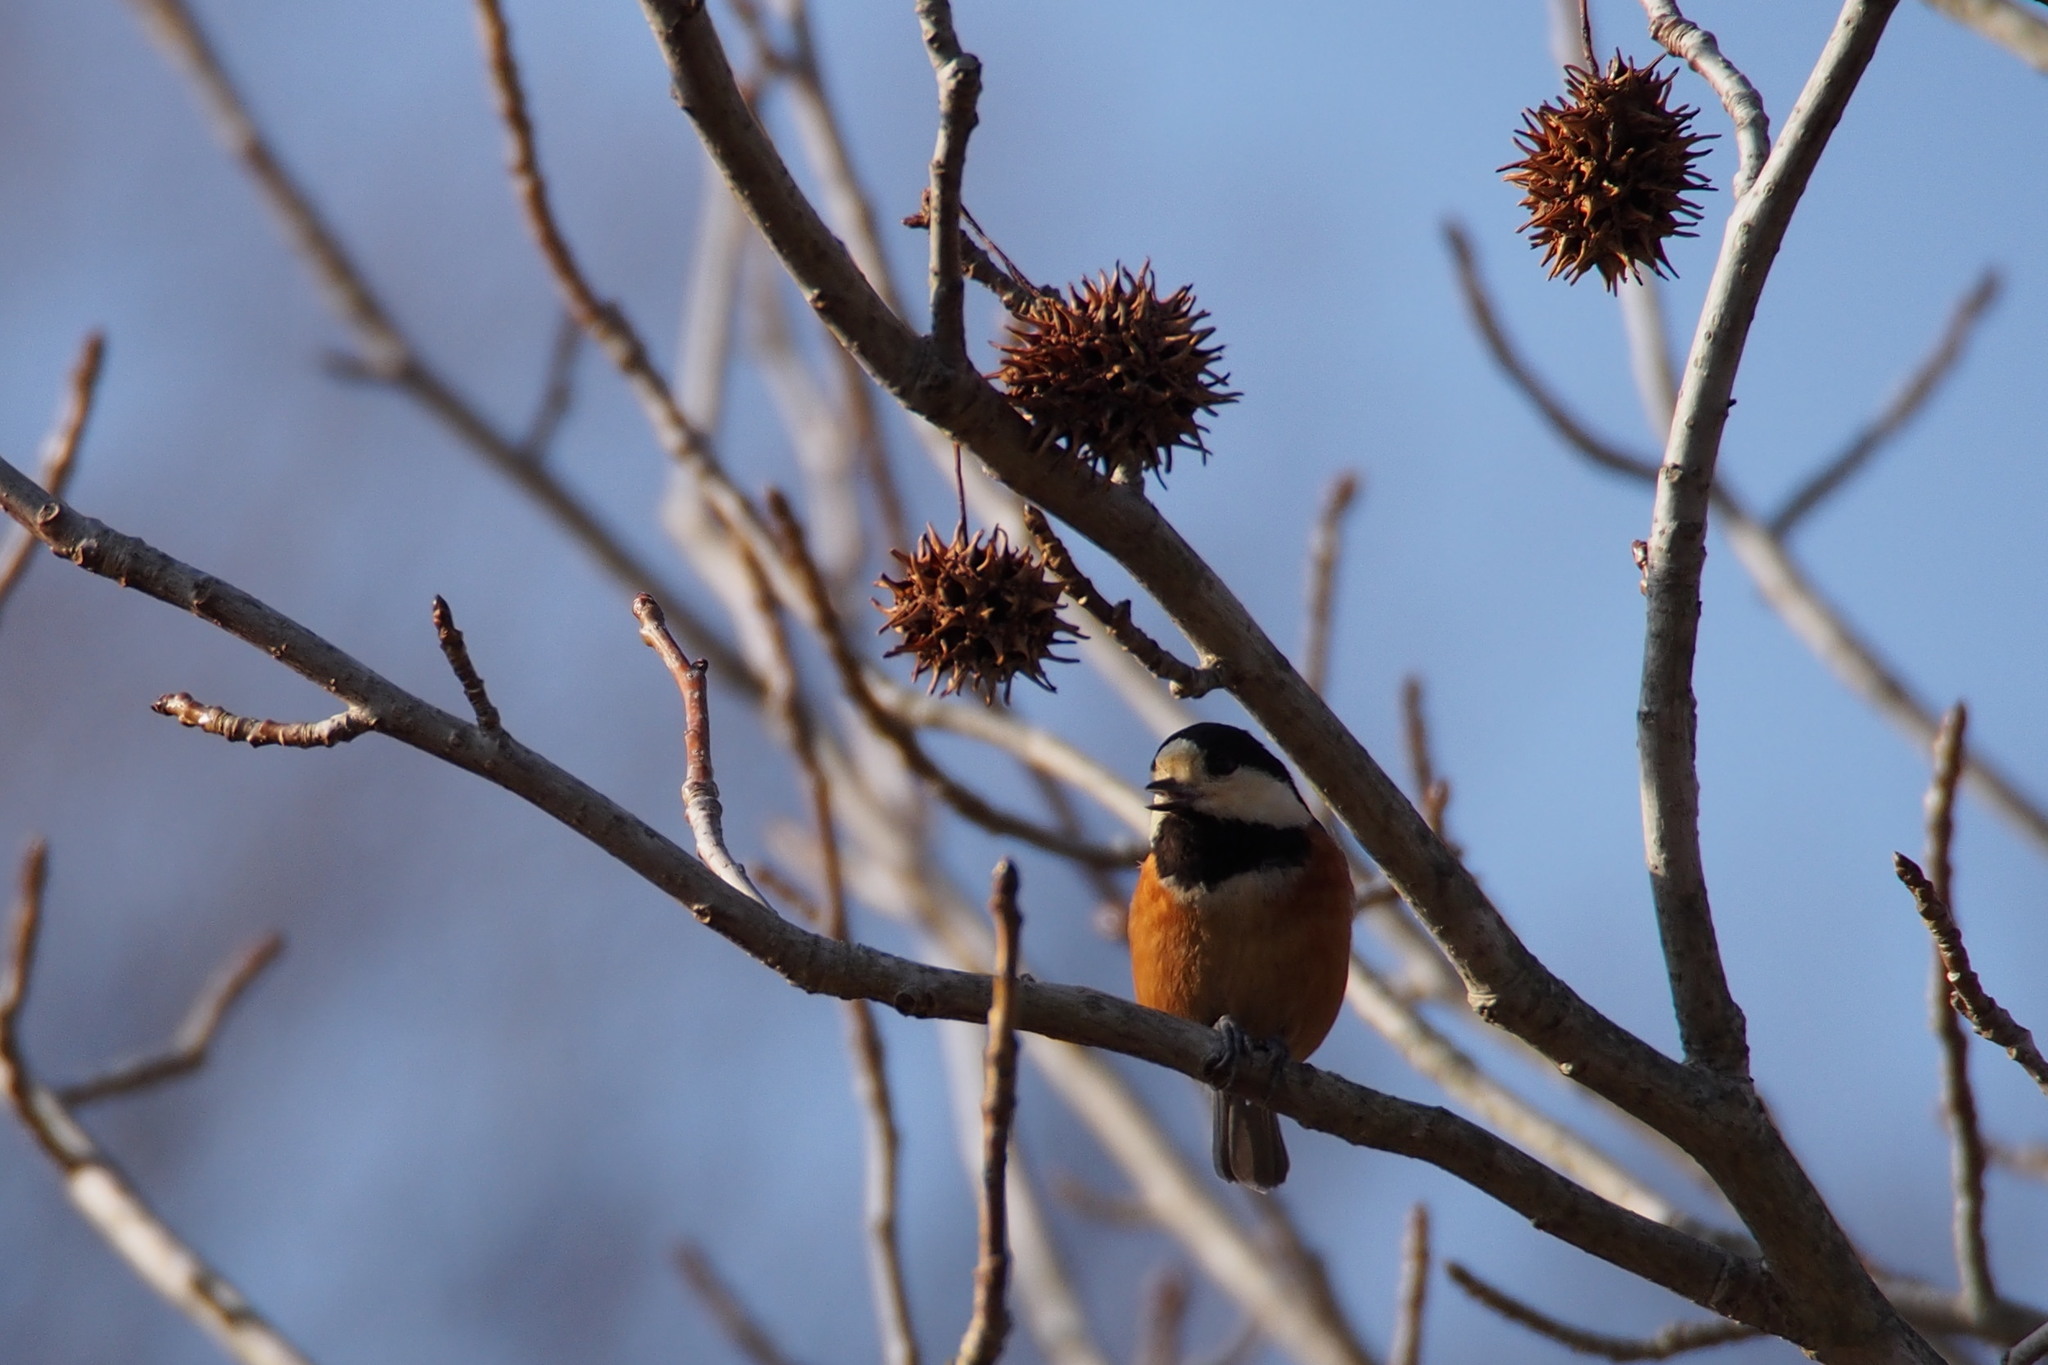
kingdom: Animalia
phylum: Chordata
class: Aves
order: Passeriformes
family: Paridae
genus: Poecile
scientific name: Poecile varius
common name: Varied tit
